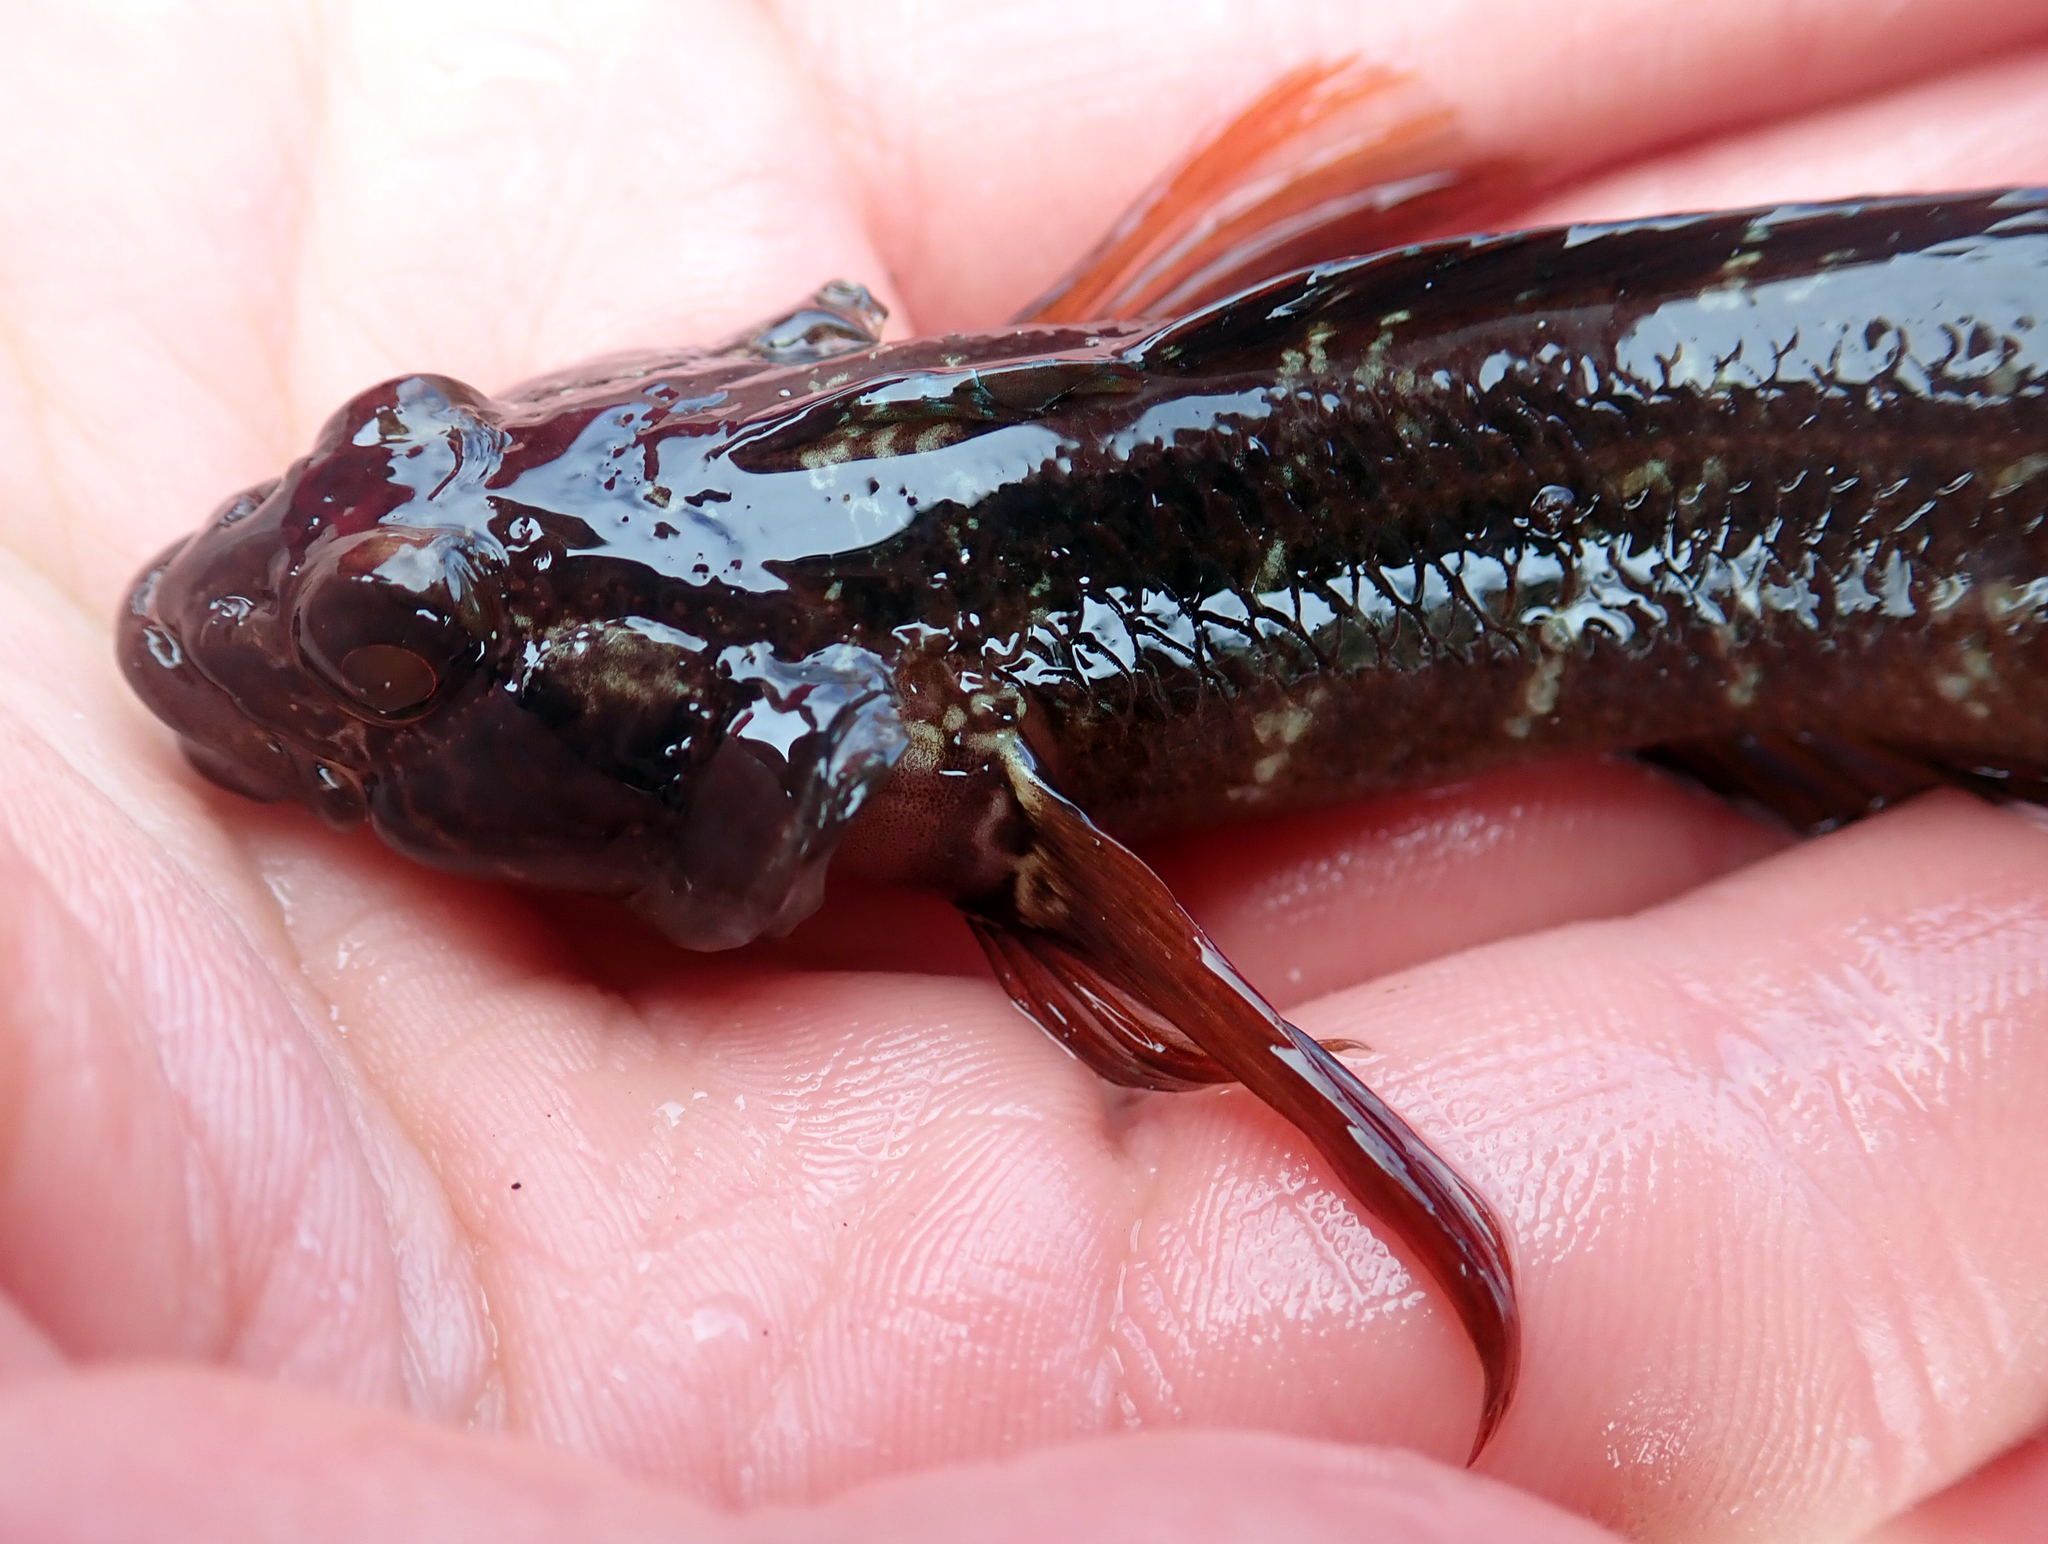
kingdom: Animalia
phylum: Chordata
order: Perciformes
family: Tripterygiidae
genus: Ruanoho
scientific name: Ruanoho decemdigitatus
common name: Longfinned triplefin
